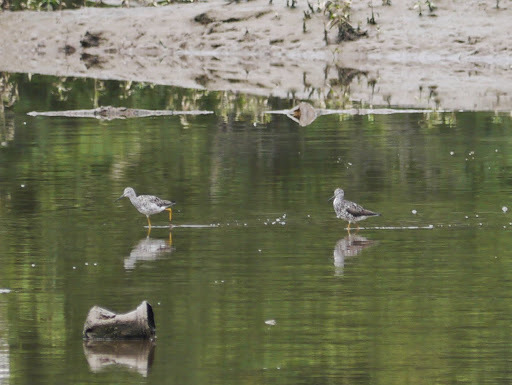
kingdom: Animalia
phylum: Chordata
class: Aves
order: Charadriiformes
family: Scolopacidae
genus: Tringa
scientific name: Tringa
